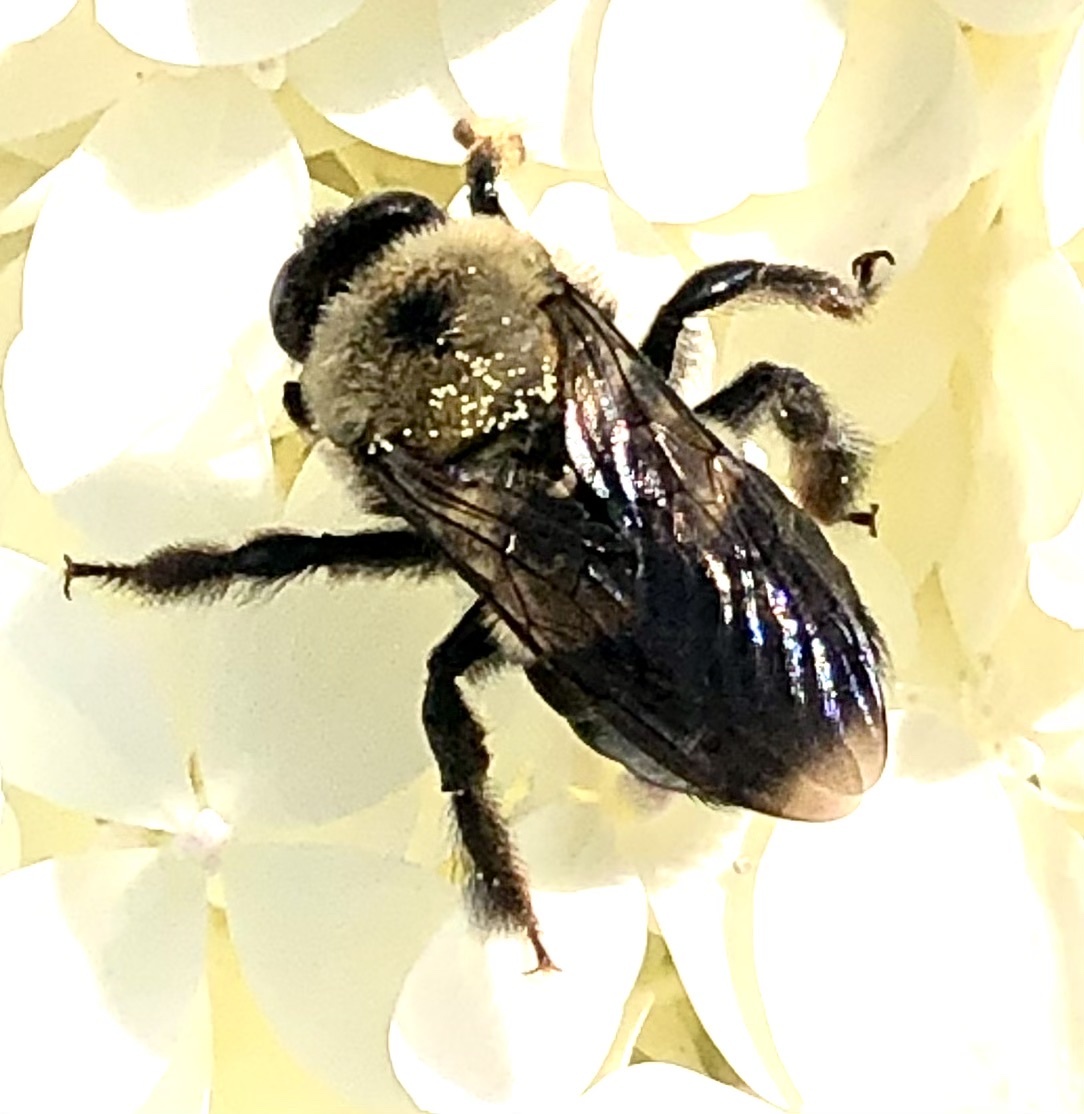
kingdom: Animalia
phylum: Arthropoda
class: Insecta
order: Hymenoptera
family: Apidae
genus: Xylocopa
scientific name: Xylocopa virginica
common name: Carpenter bee
